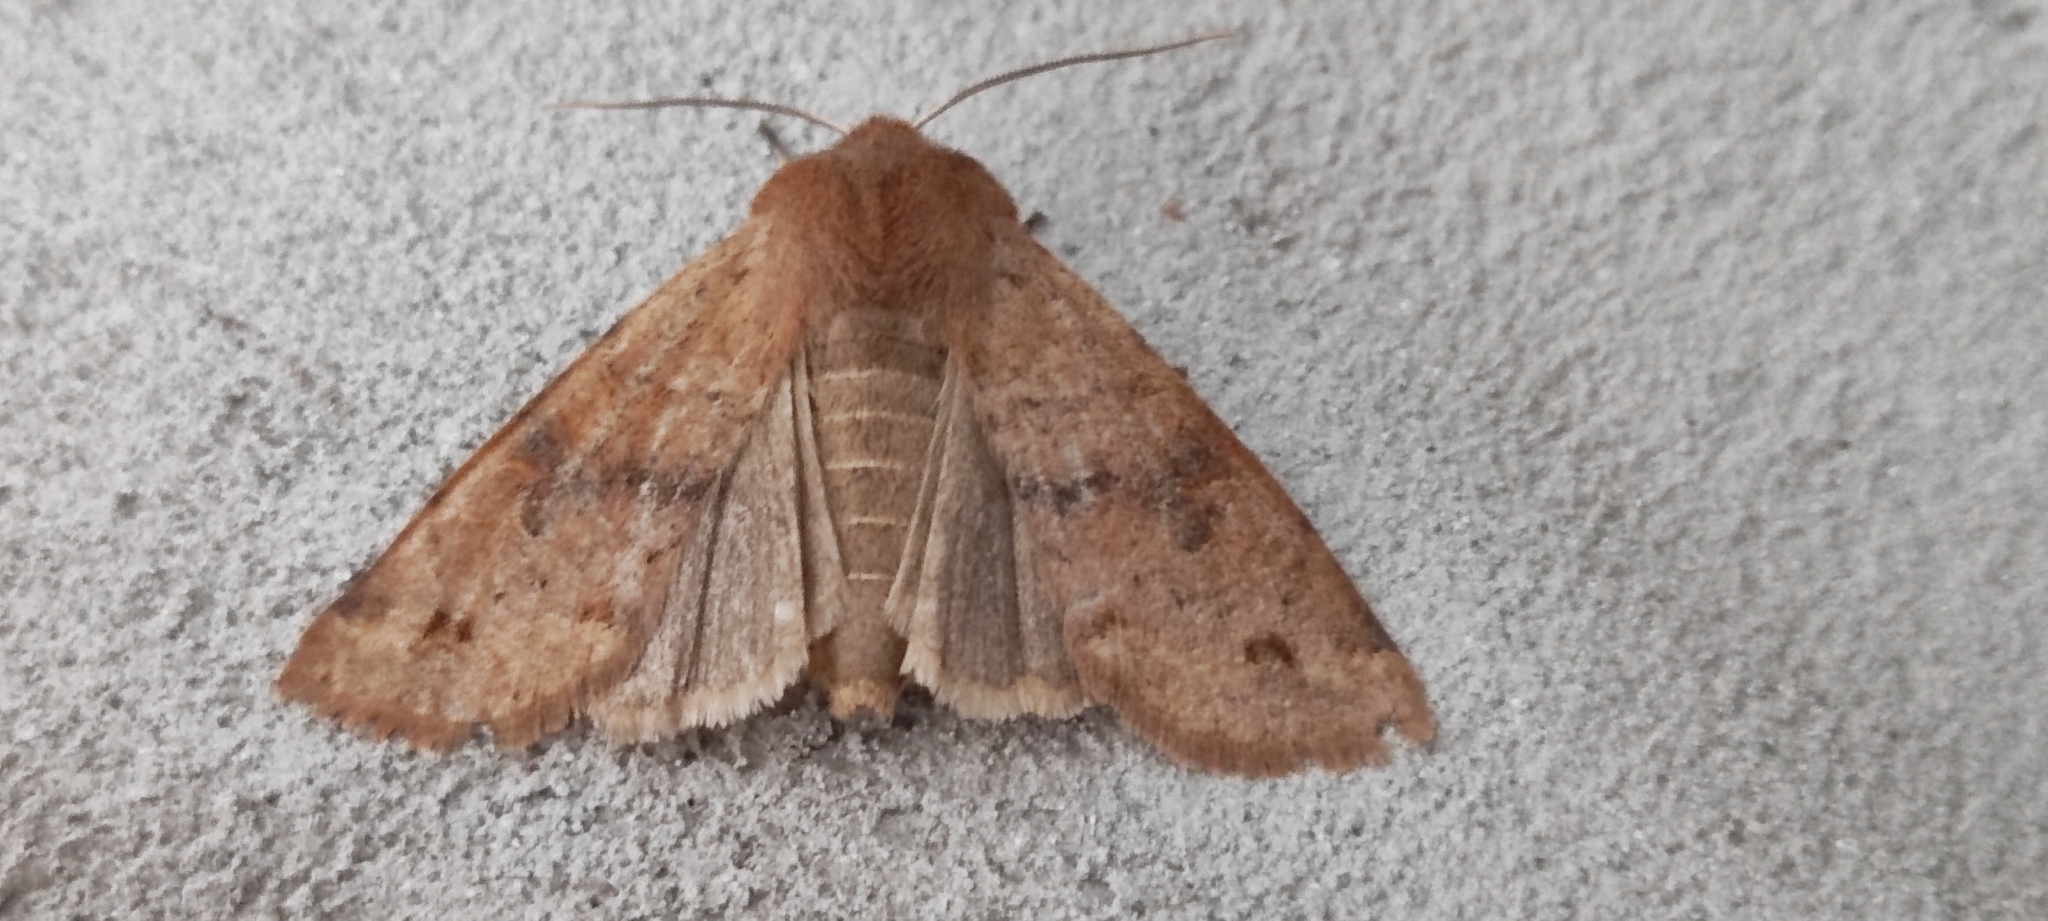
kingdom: Animalia
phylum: Arthropoda
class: Insecta
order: Lepidoptera
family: Noctuidae
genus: Anorthoa
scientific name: Anorthoa munda
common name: Twin-spotted quaker
